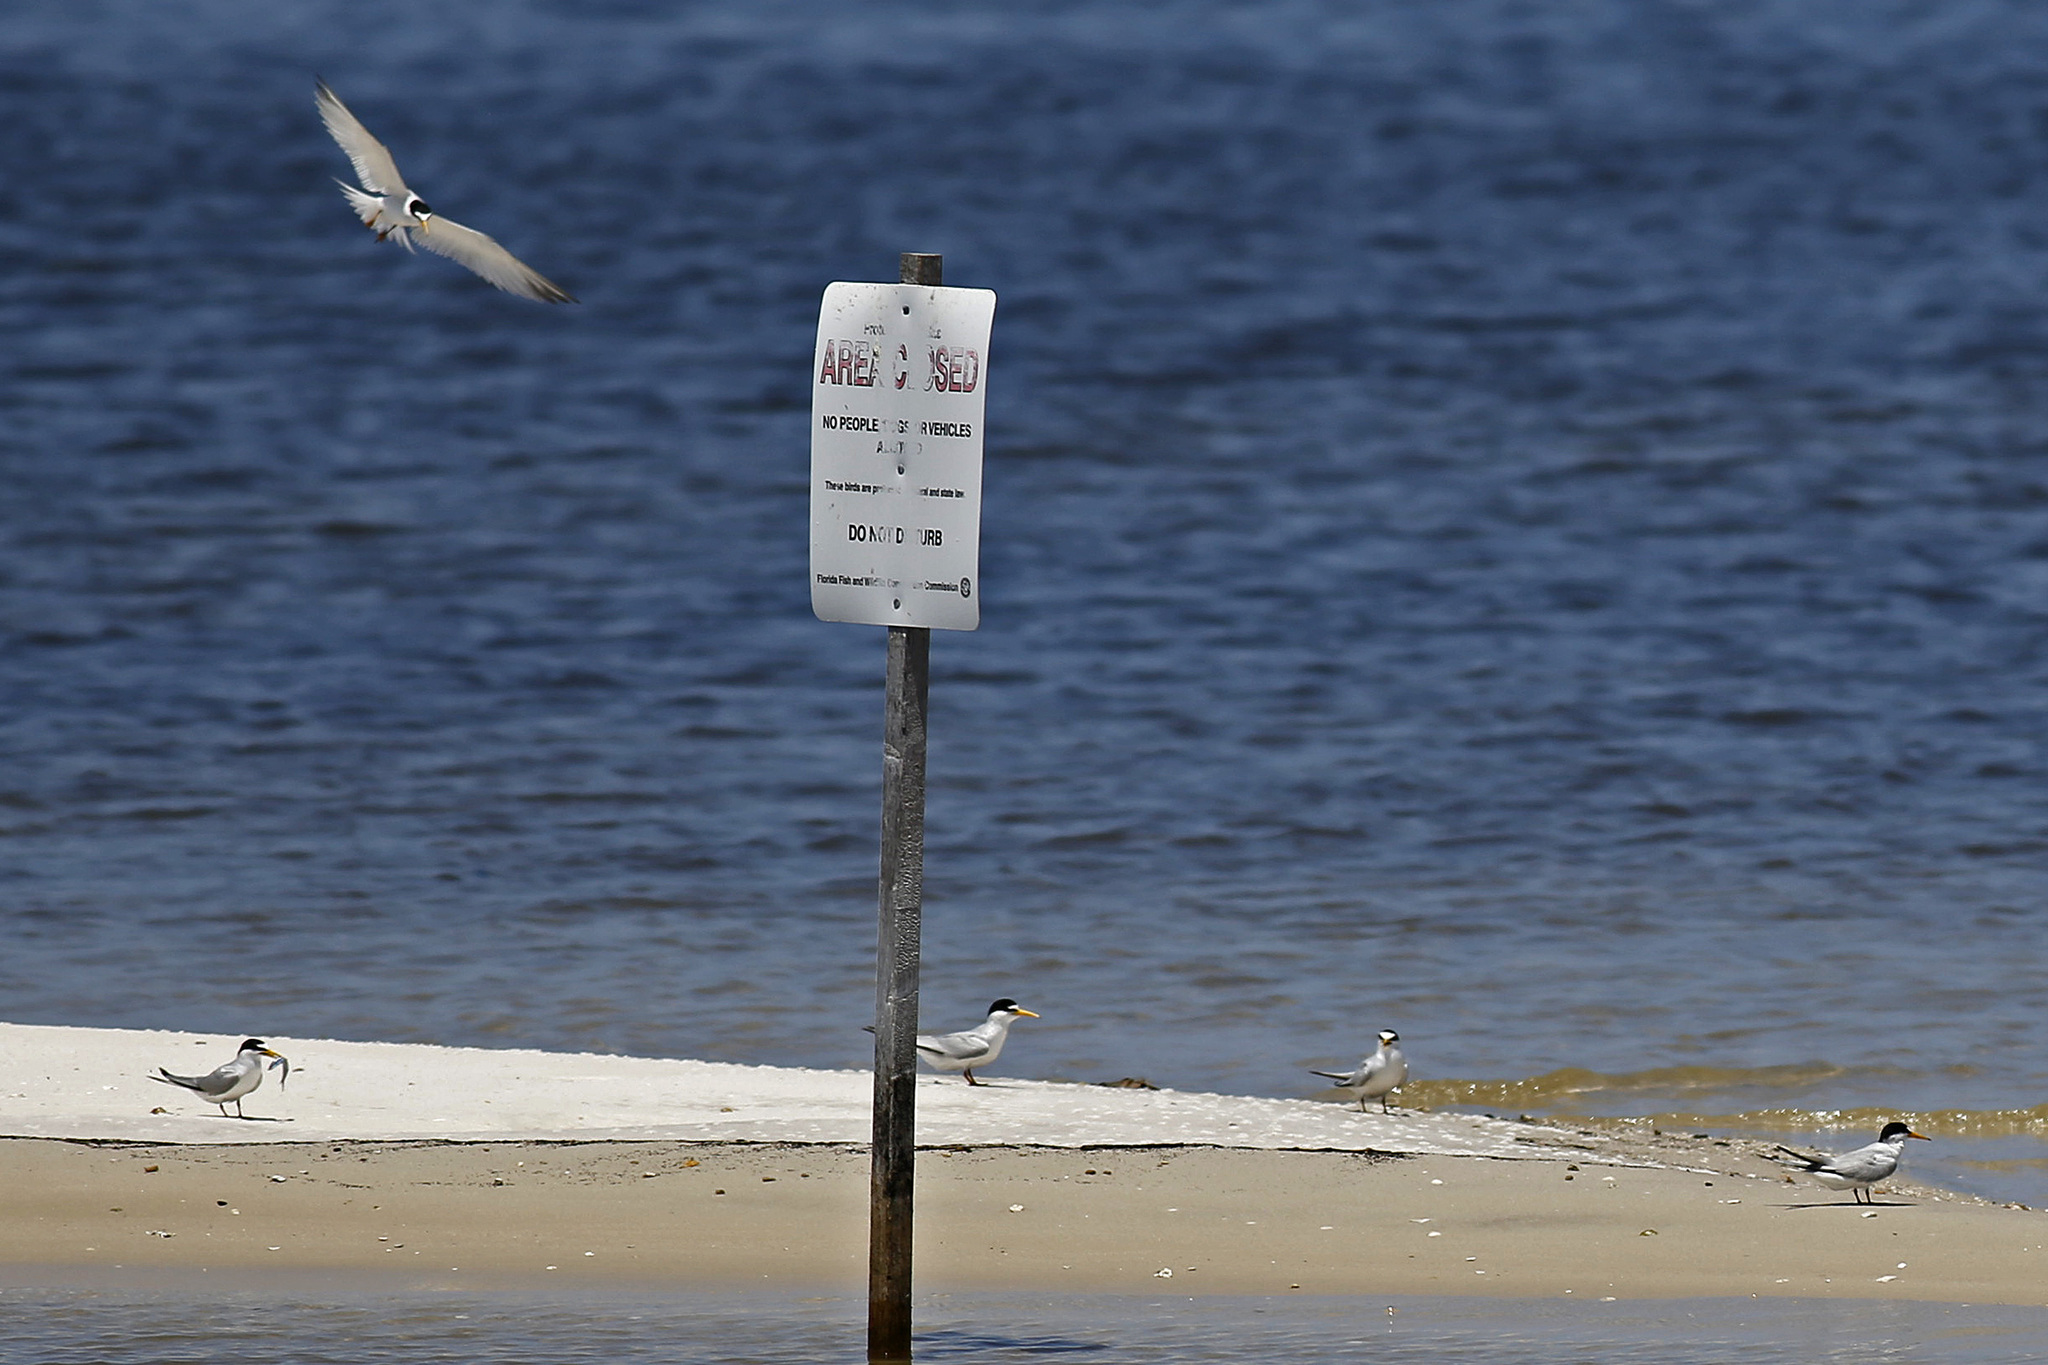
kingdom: Animalia
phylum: Chordata
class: Aves
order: Charadriiformes
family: Laridae
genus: Sternula
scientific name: Sternula antillarum
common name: Least tern
